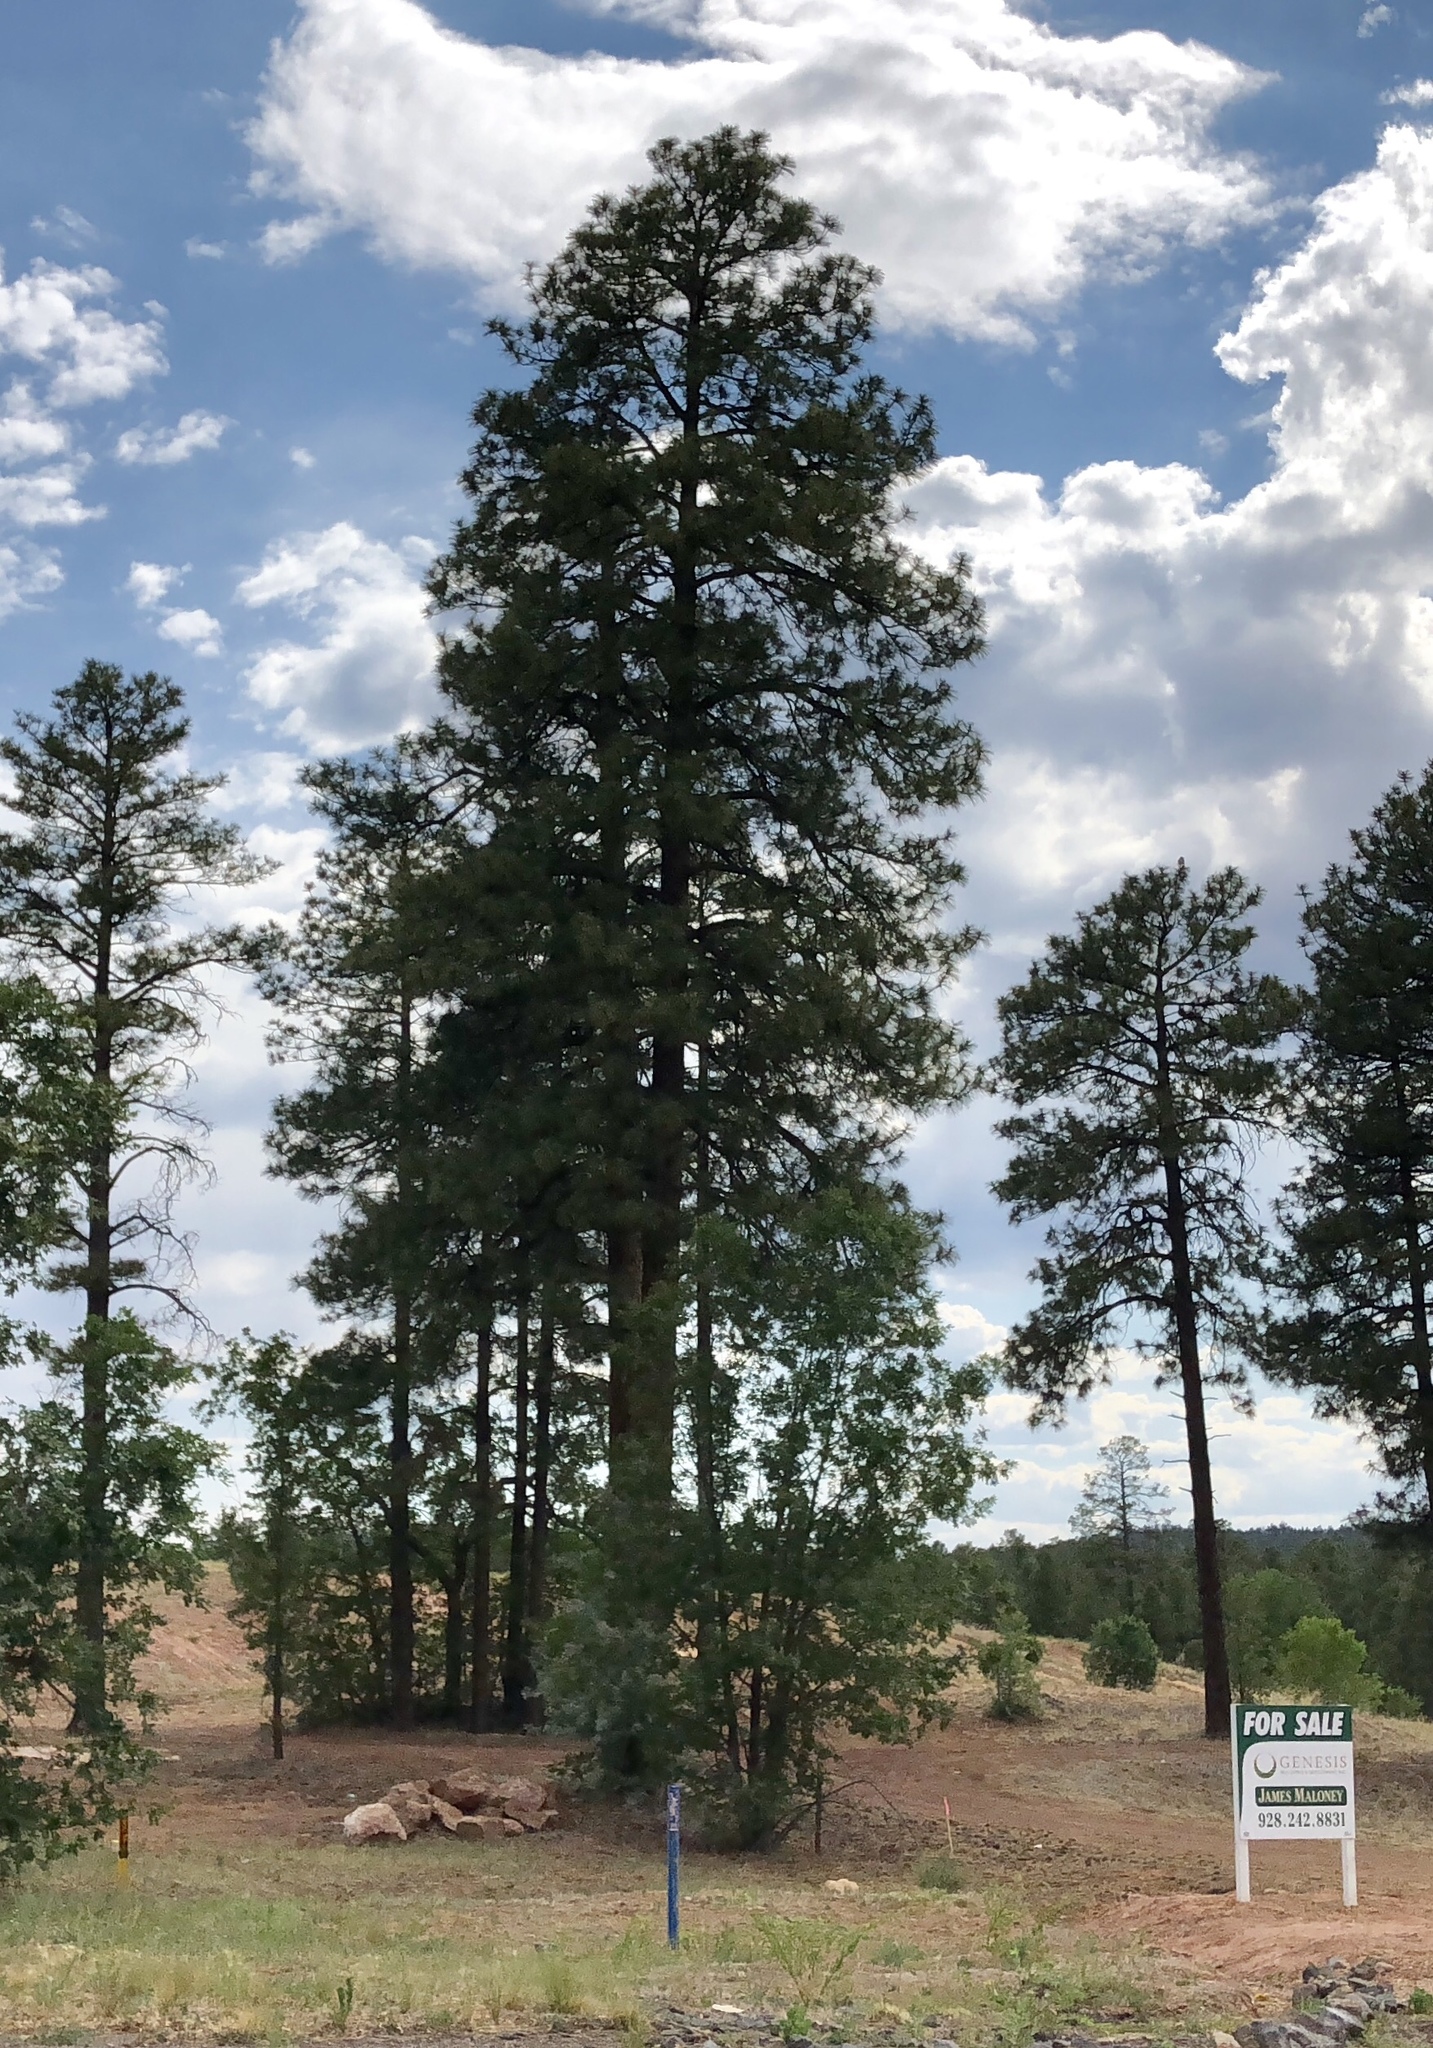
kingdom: Plantae
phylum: Tracheophyta
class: Pinopsida
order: Pinales
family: Pinaceae
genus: Pinus
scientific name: Pinus ponderosa
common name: Western yellow-pine
